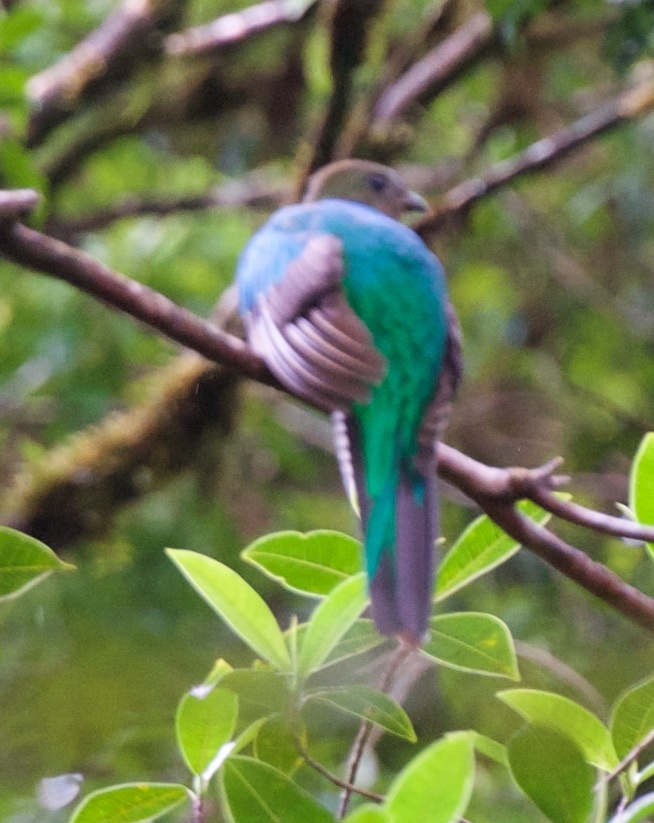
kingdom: Animalia
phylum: Chordata
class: Aves
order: Trogoniformes
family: Trogonidae
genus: Pharomachrus
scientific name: Pharomachrus mocinno
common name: Resplendent quetzal
